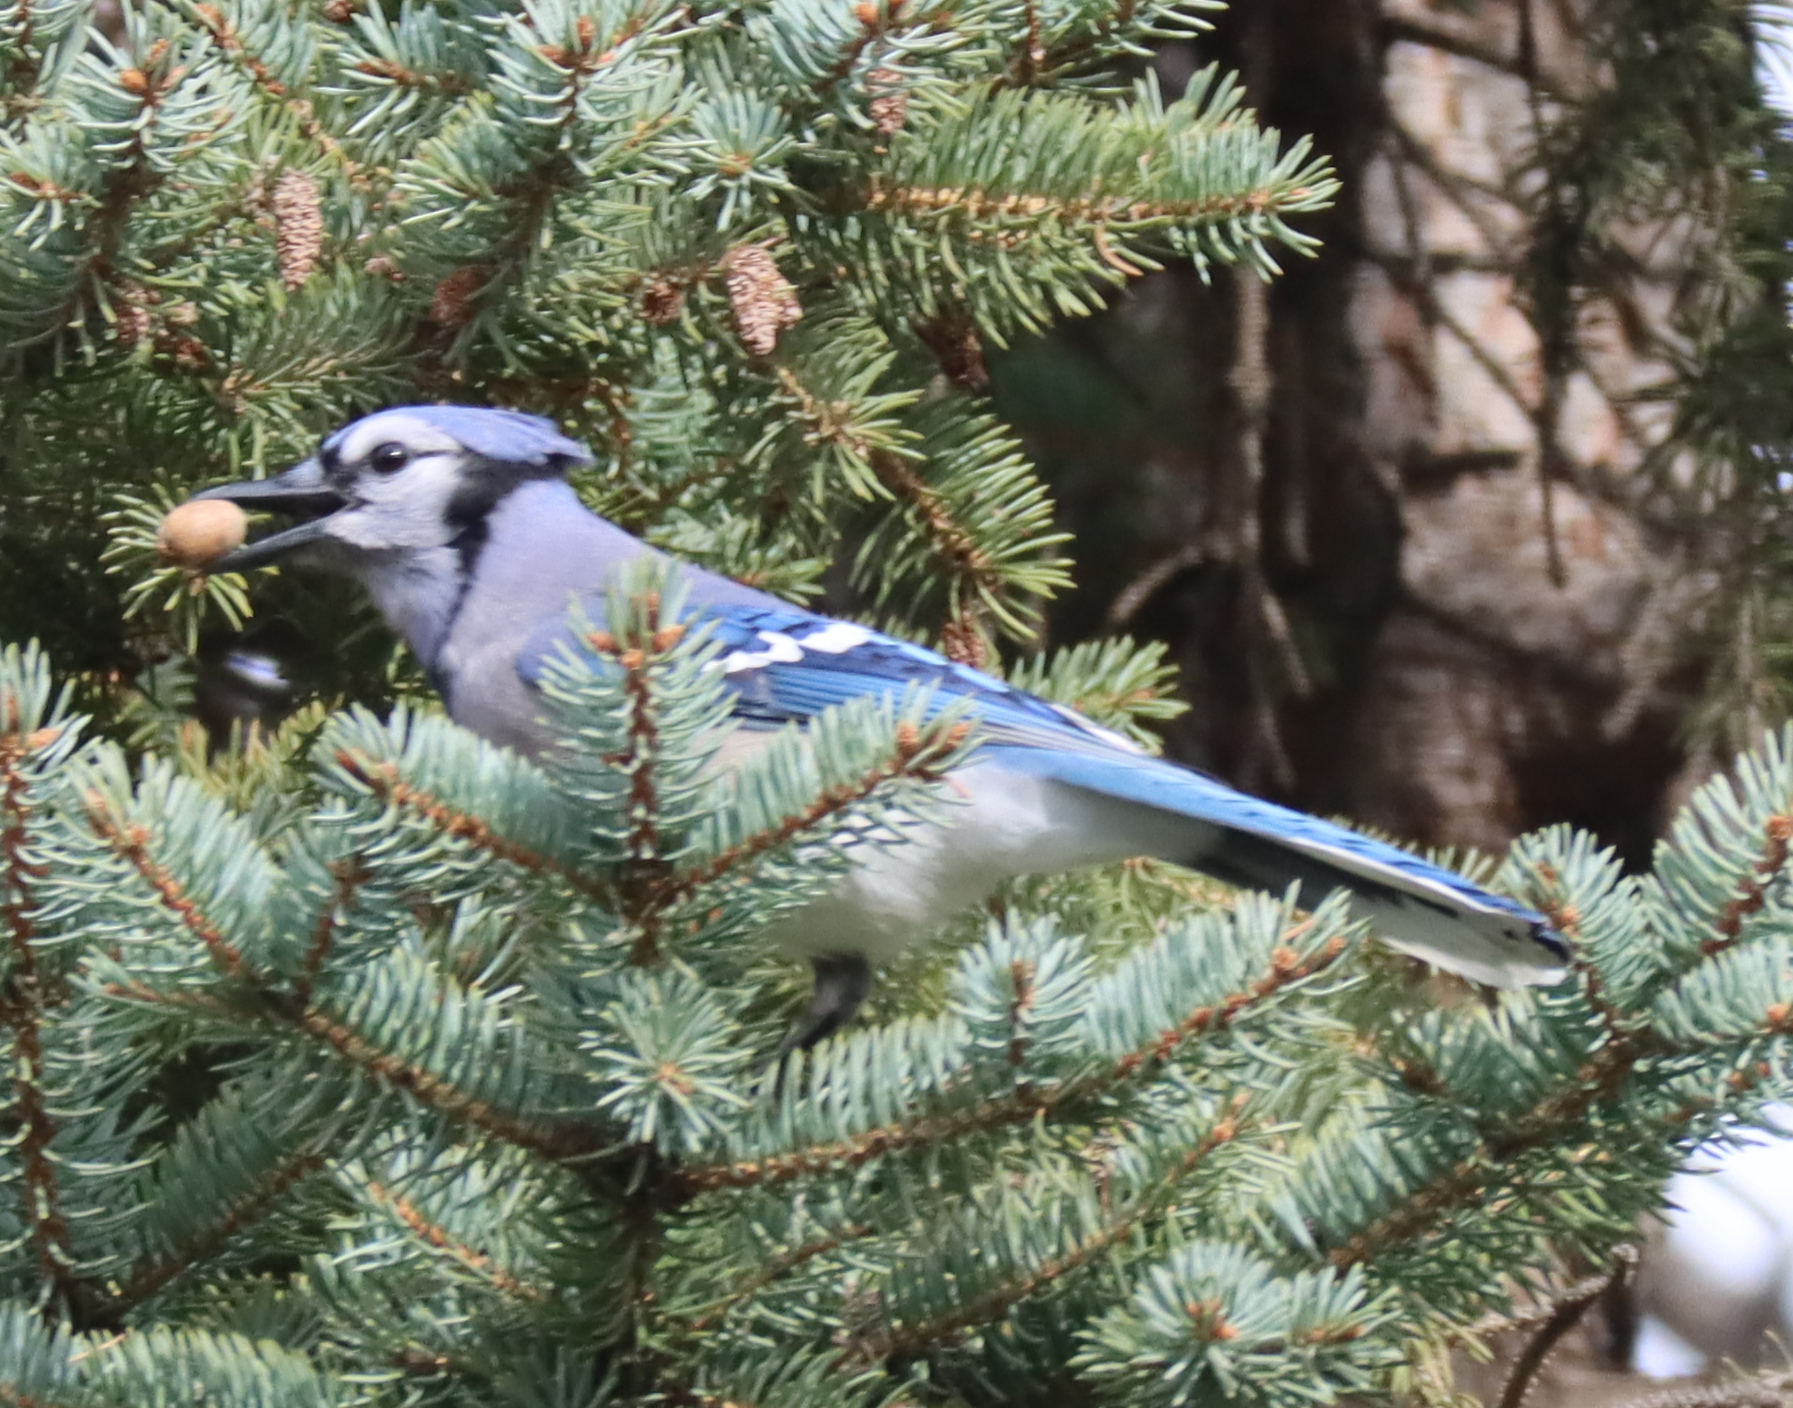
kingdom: Animalia
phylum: Chordata
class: Aves
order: Passeriformes
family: Corvidae
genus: Cyanocitta
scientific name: Cyanocitta cristata
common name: Blue jay
